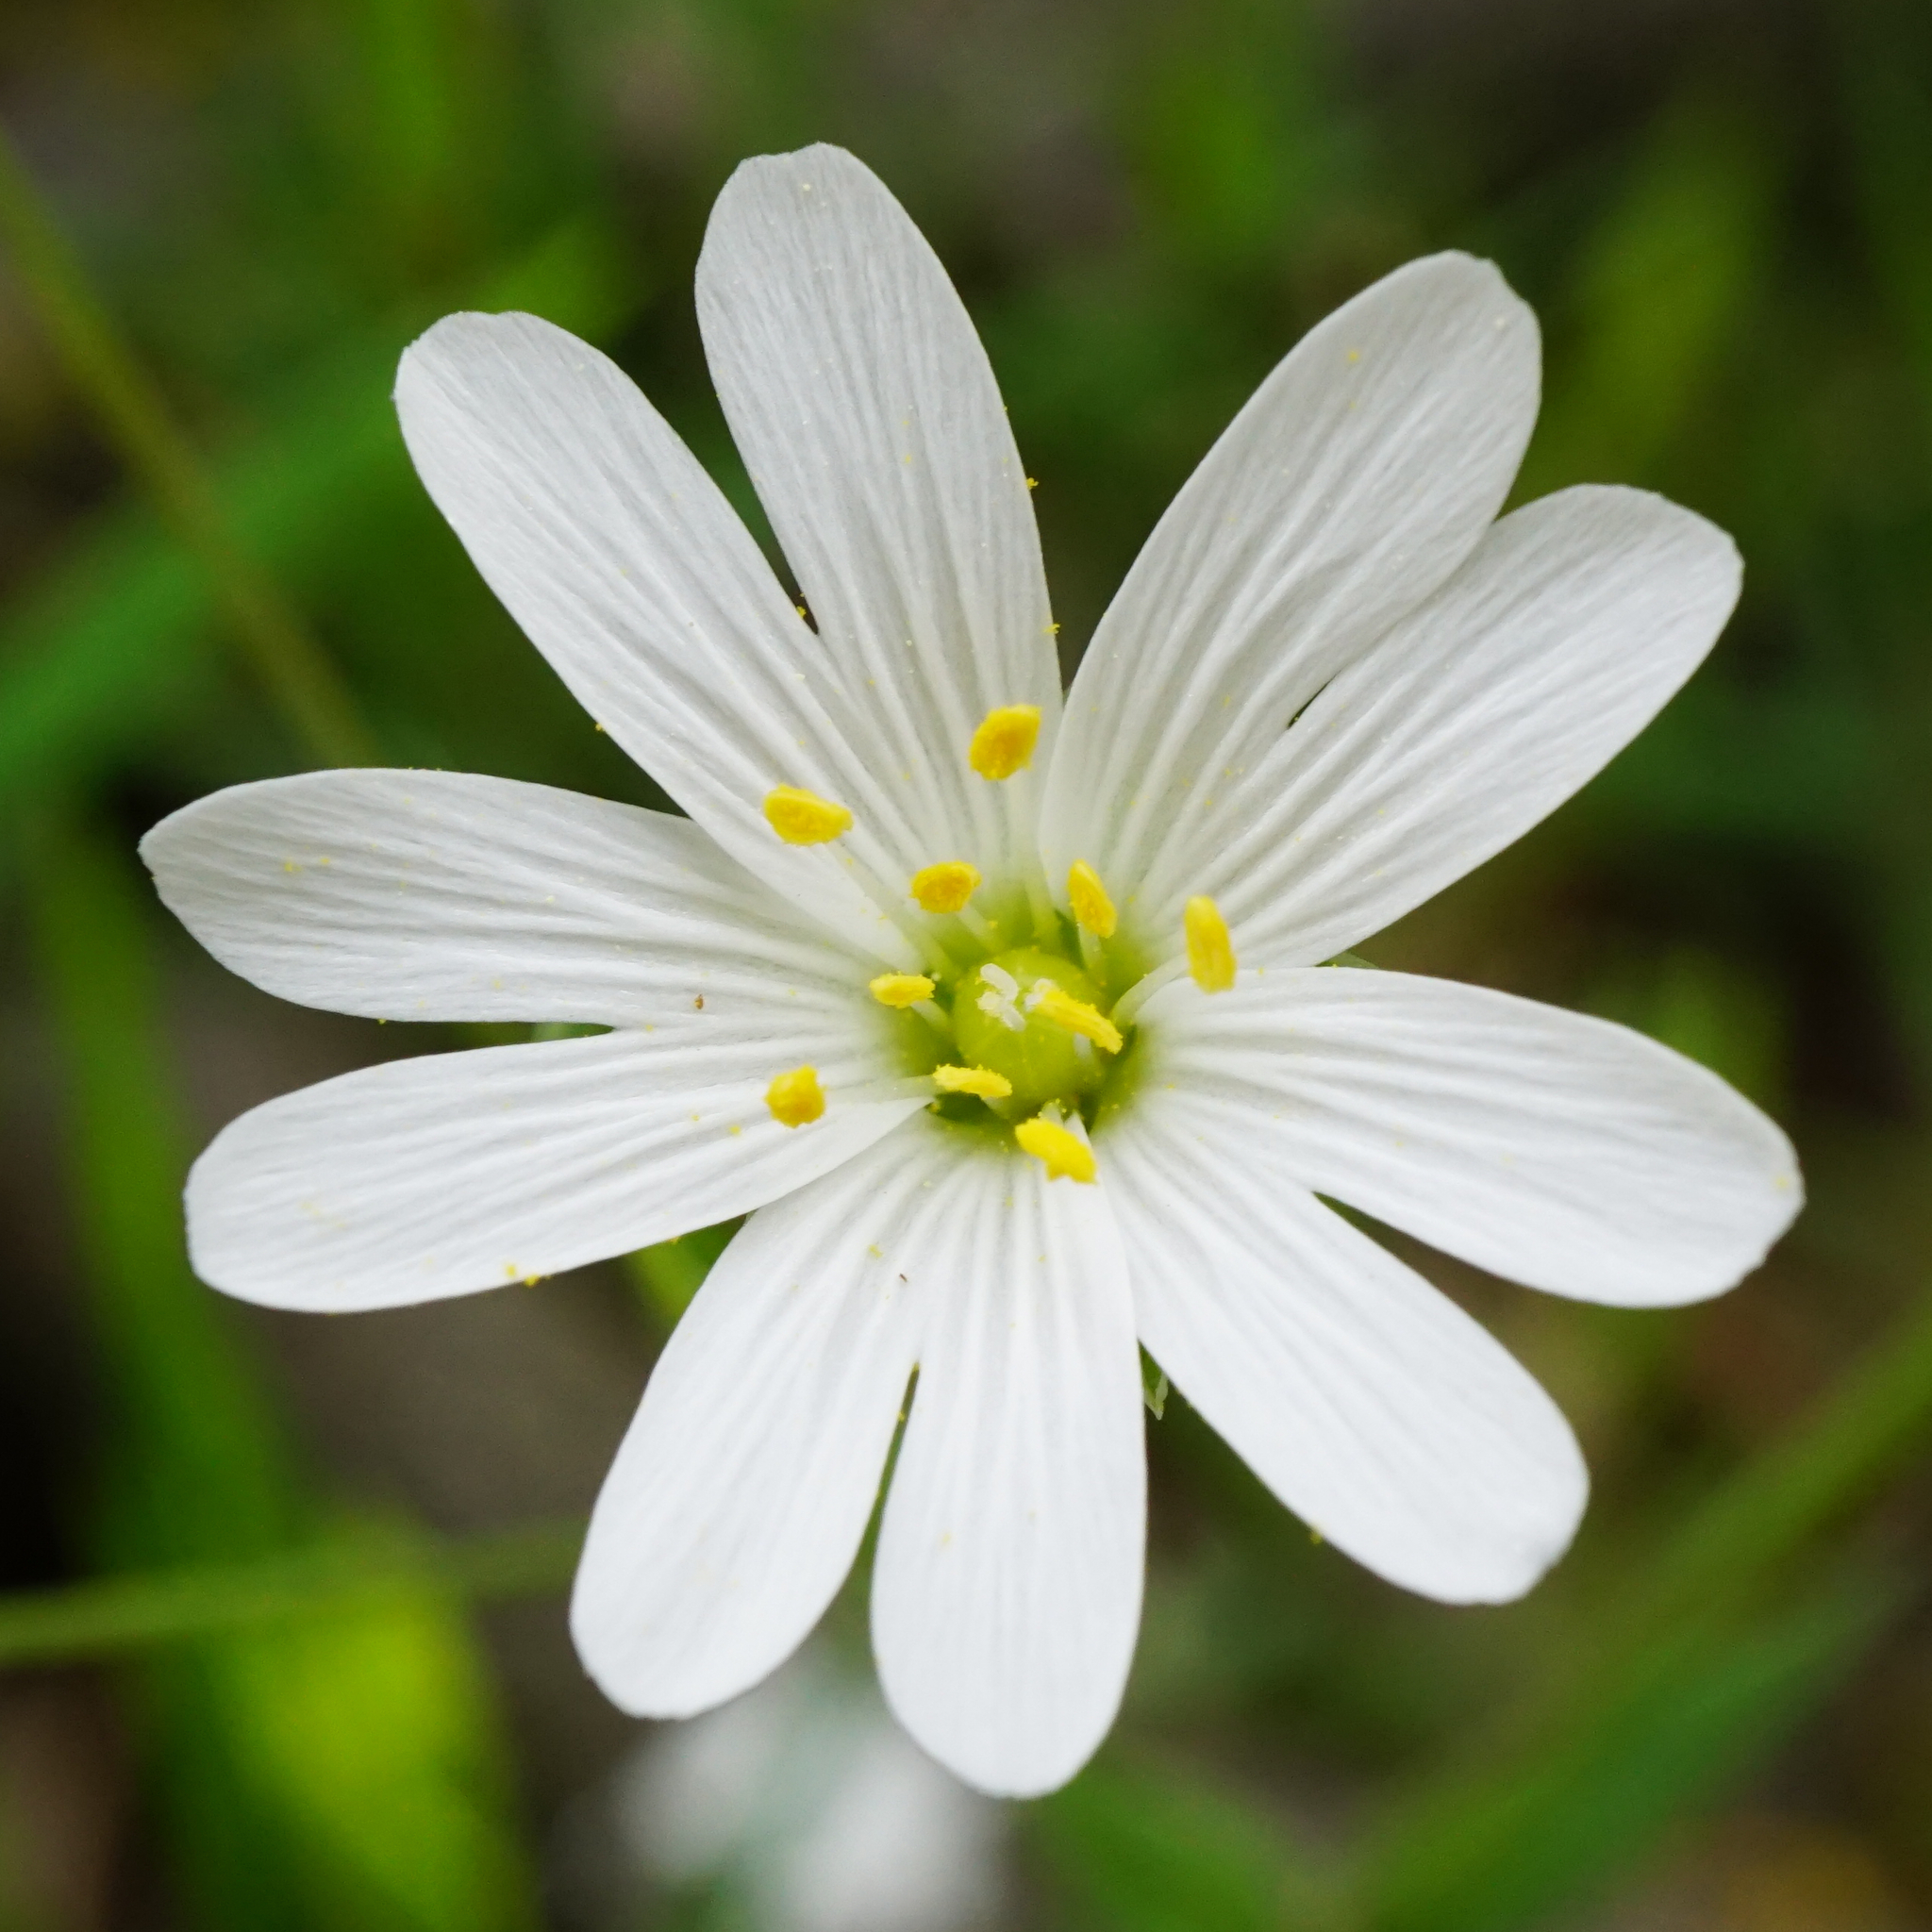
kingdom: Plantae
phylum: Tracheophyta
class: Magnoliopsida
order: Caryophyllales
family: Caryophyllaceae
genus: Rabelera
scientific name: Rabelera holostea
